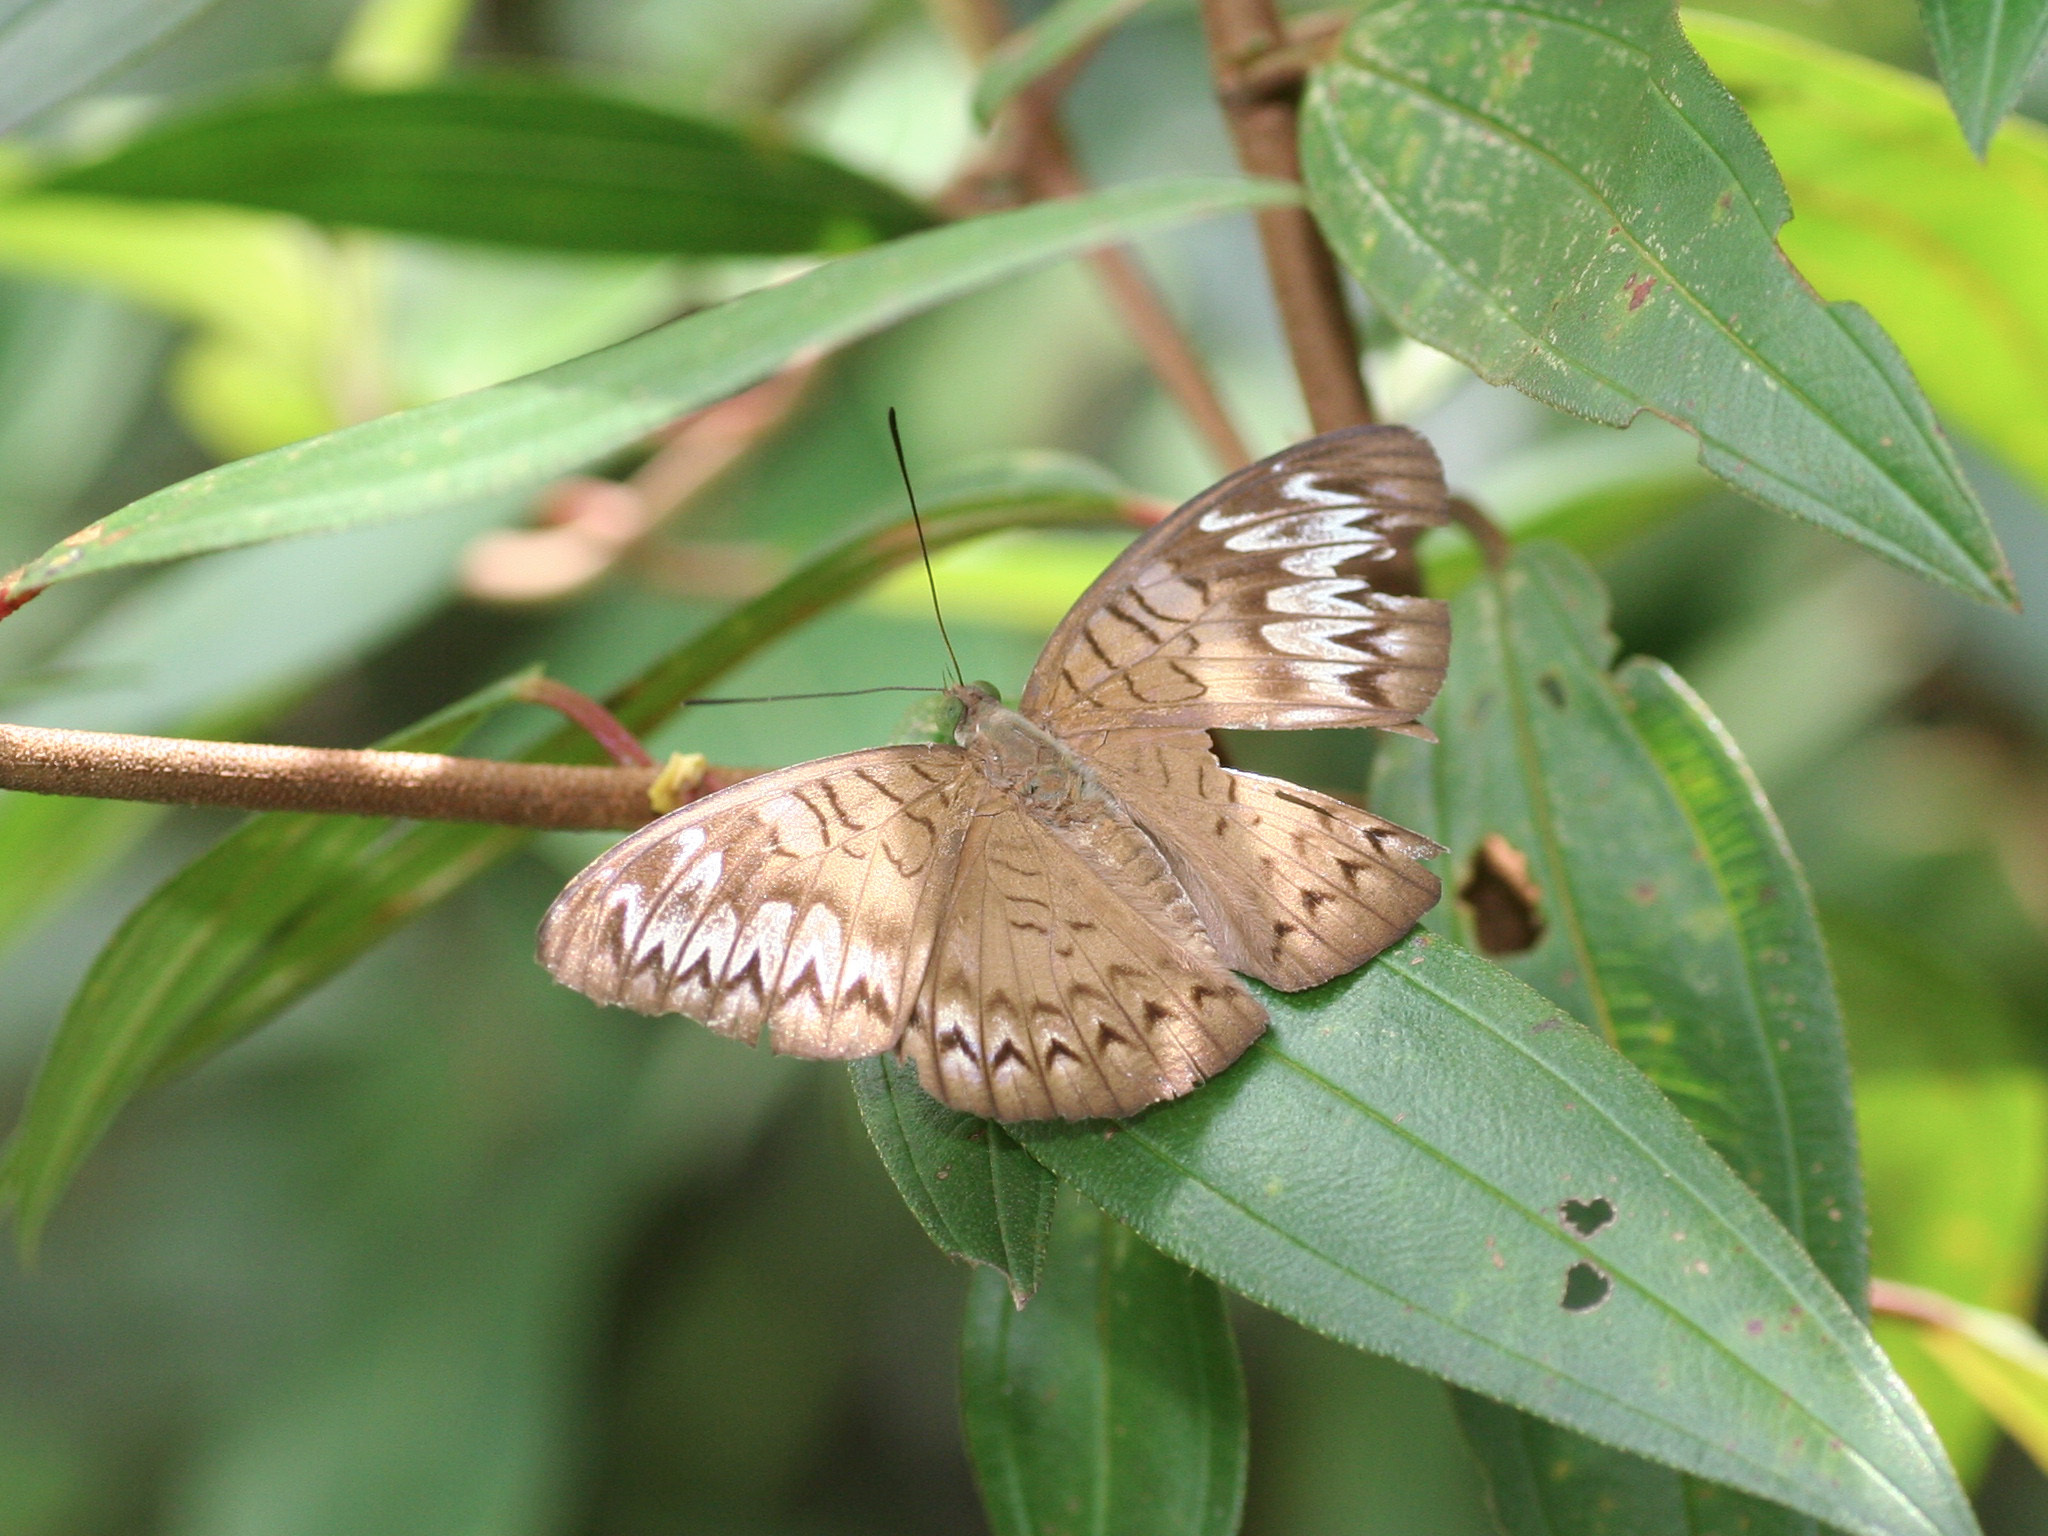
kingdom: Animalia
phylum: Arthropoda
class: Insecta
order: Lepidoptera
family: Nymphalidae
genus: Tanaecia
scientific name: Tanaecia pelea
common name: Malay viscount
